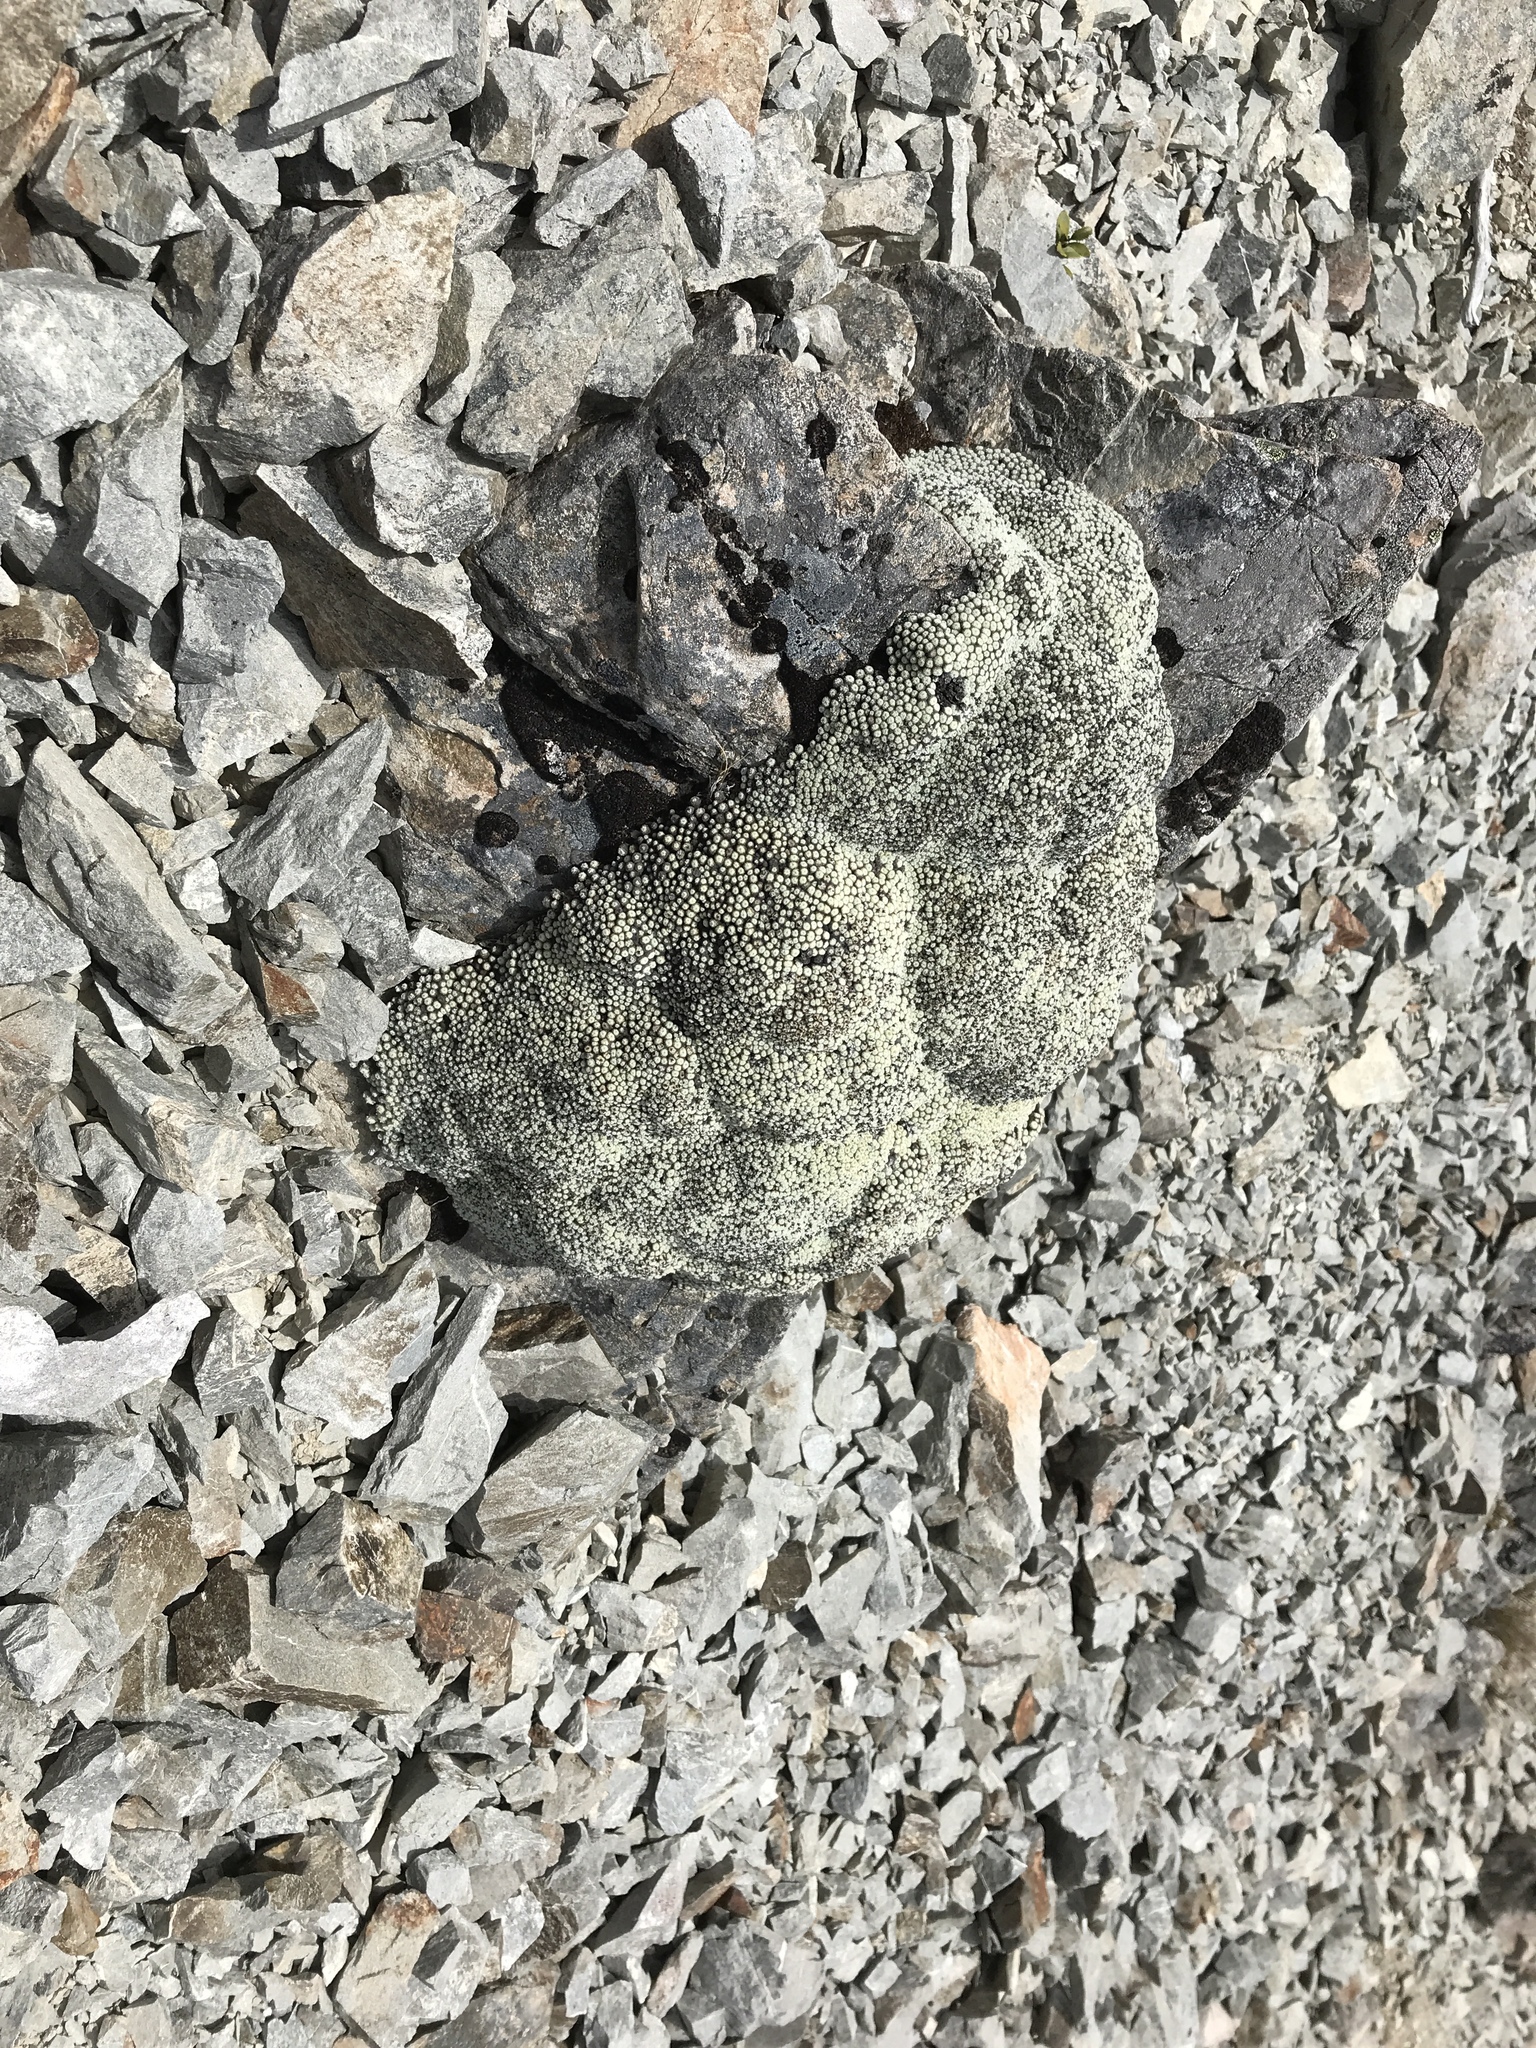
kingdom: Plantae
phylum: Tracheophyta
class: Magnoliopsida
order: Asterales
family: Asteraceae
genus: Raoulia
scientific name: Raoulia mammillaris
